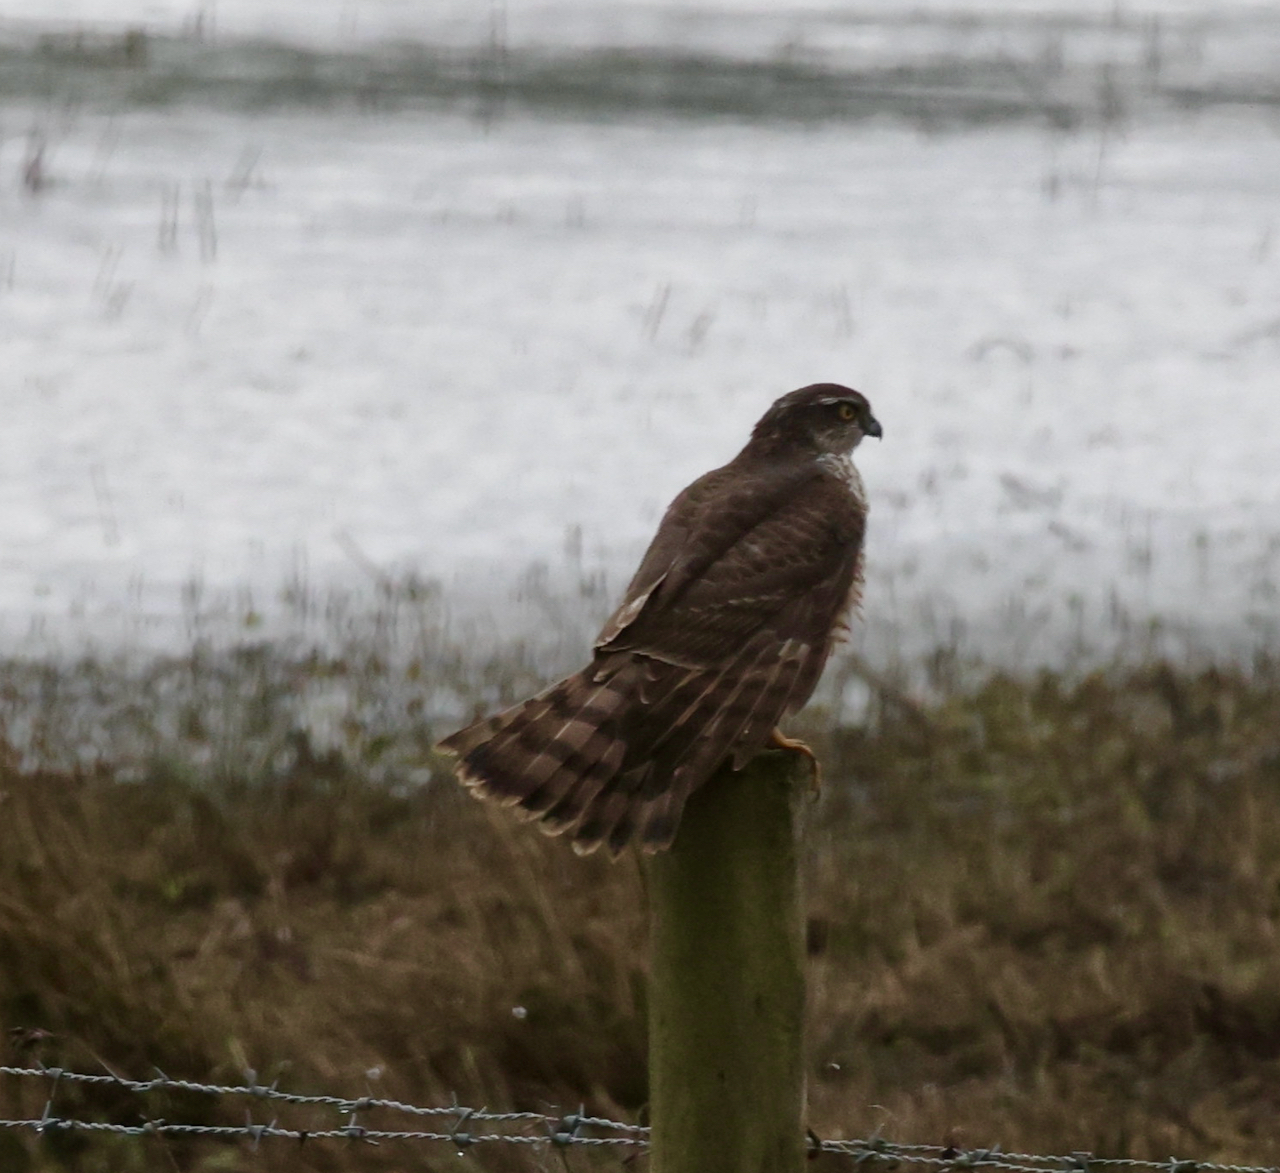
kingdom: Animalia
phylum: Chordata
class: Aves
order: Accipitriformes
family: Accipitridae
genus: Accipiter
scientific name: Accipiter nisus
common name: Eurasian sparrowhawk
